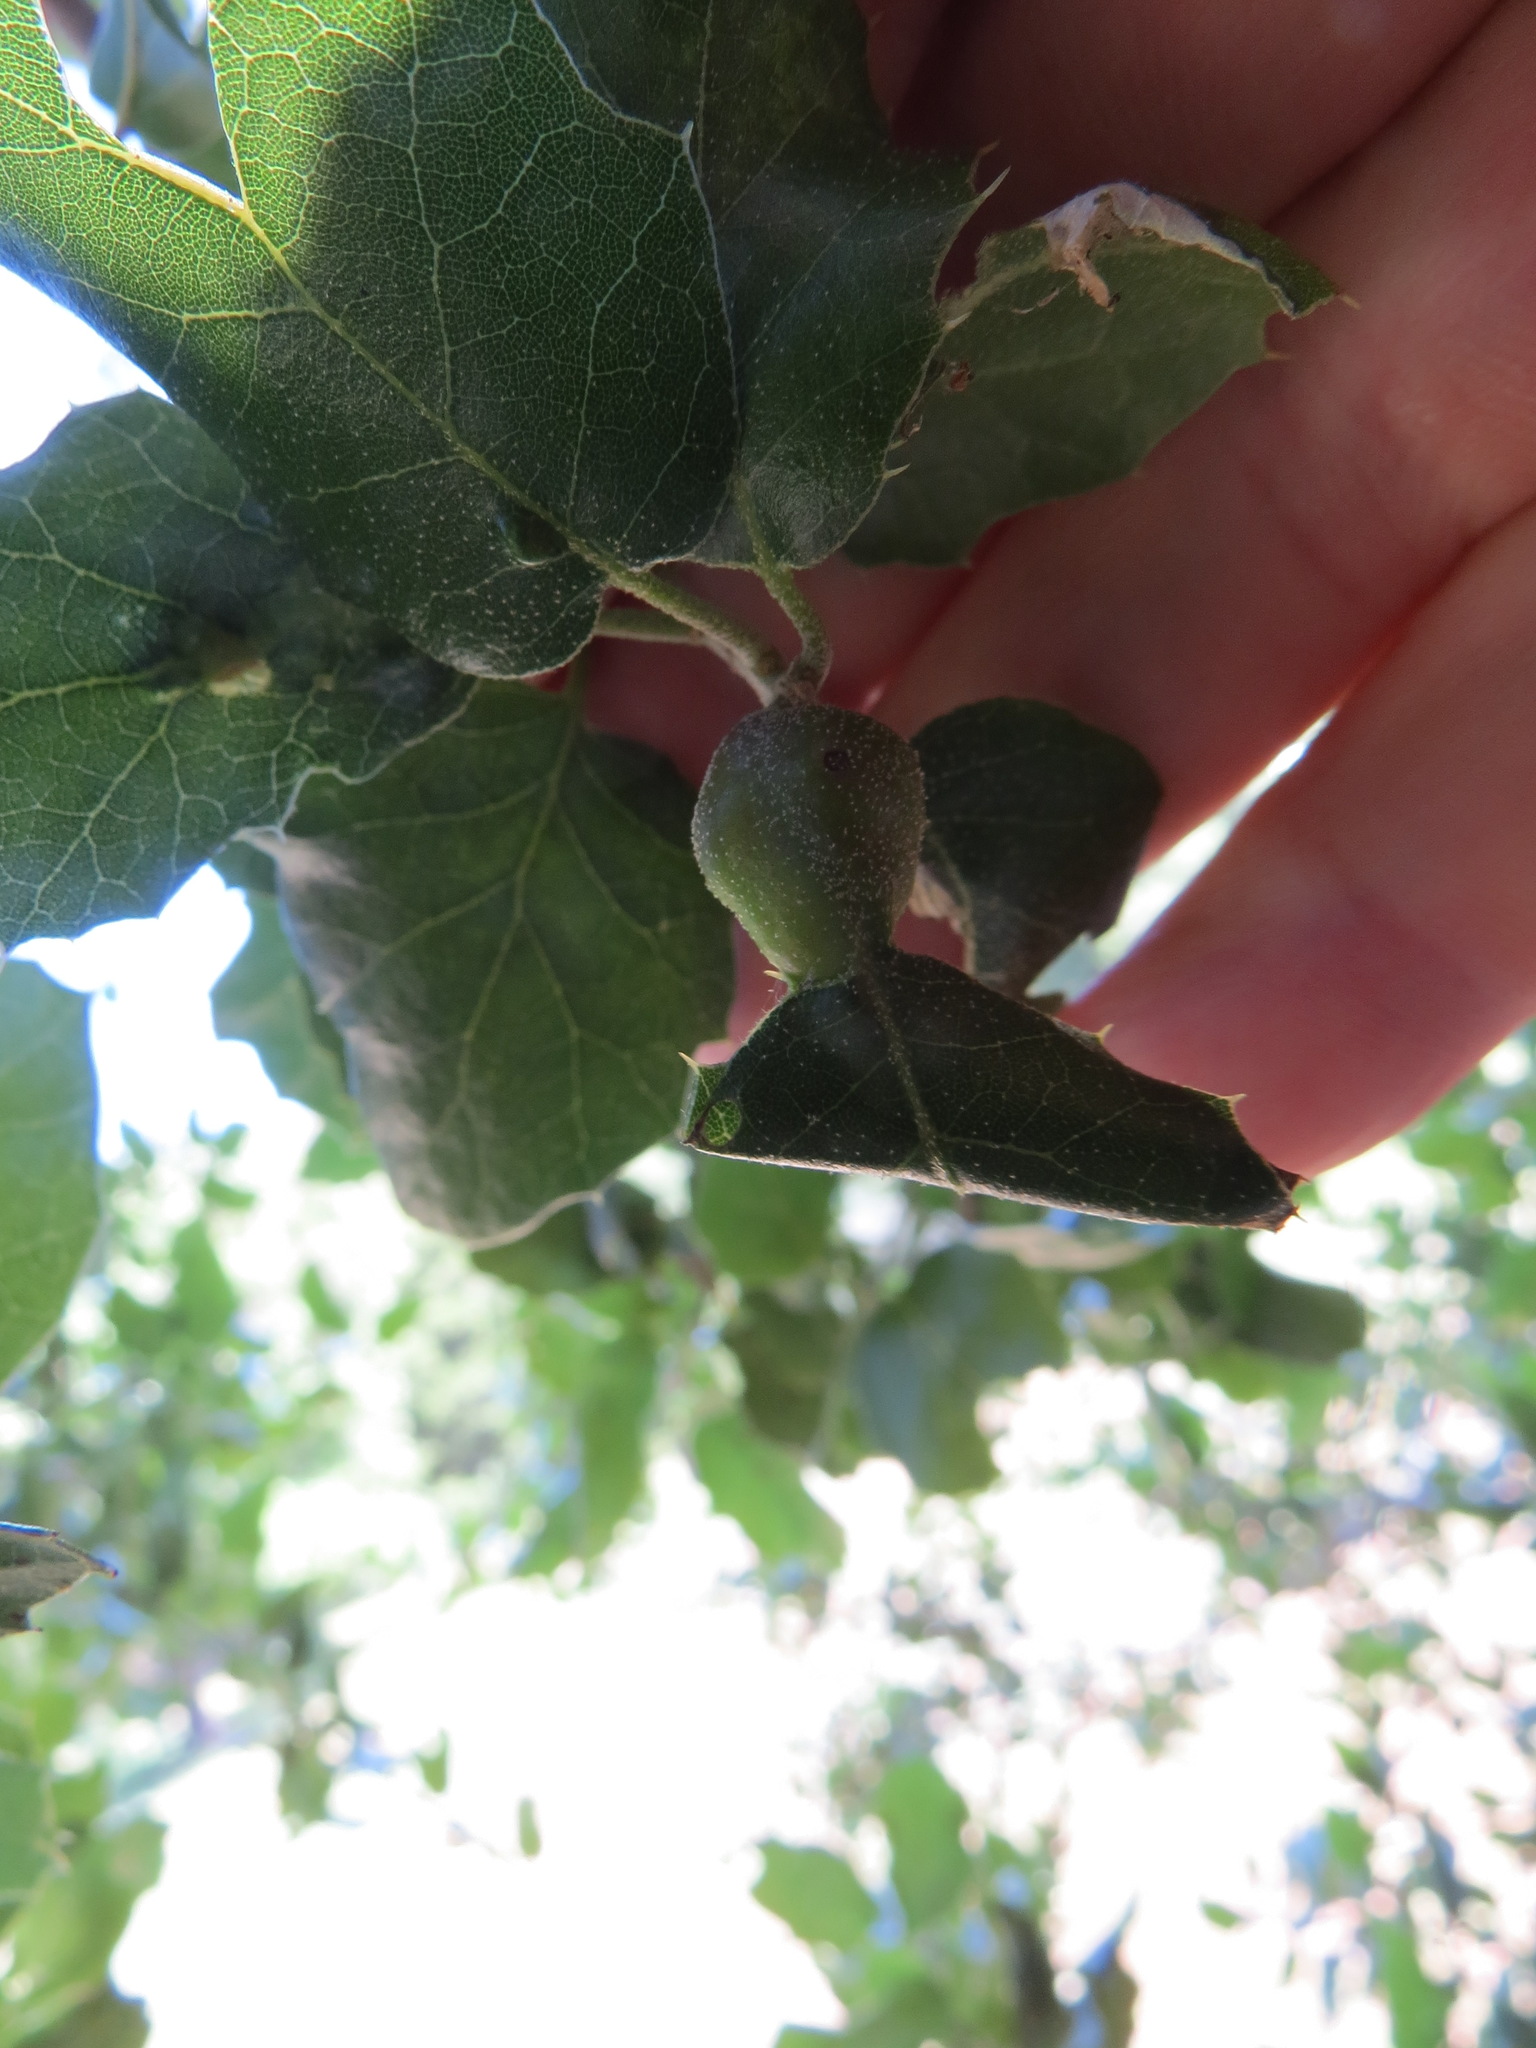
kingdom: Animalia
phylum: Arthropoda
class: Insecta
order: Hymenoptera
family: Cynipidae
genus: Melikaiella
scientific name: Melikaiella
